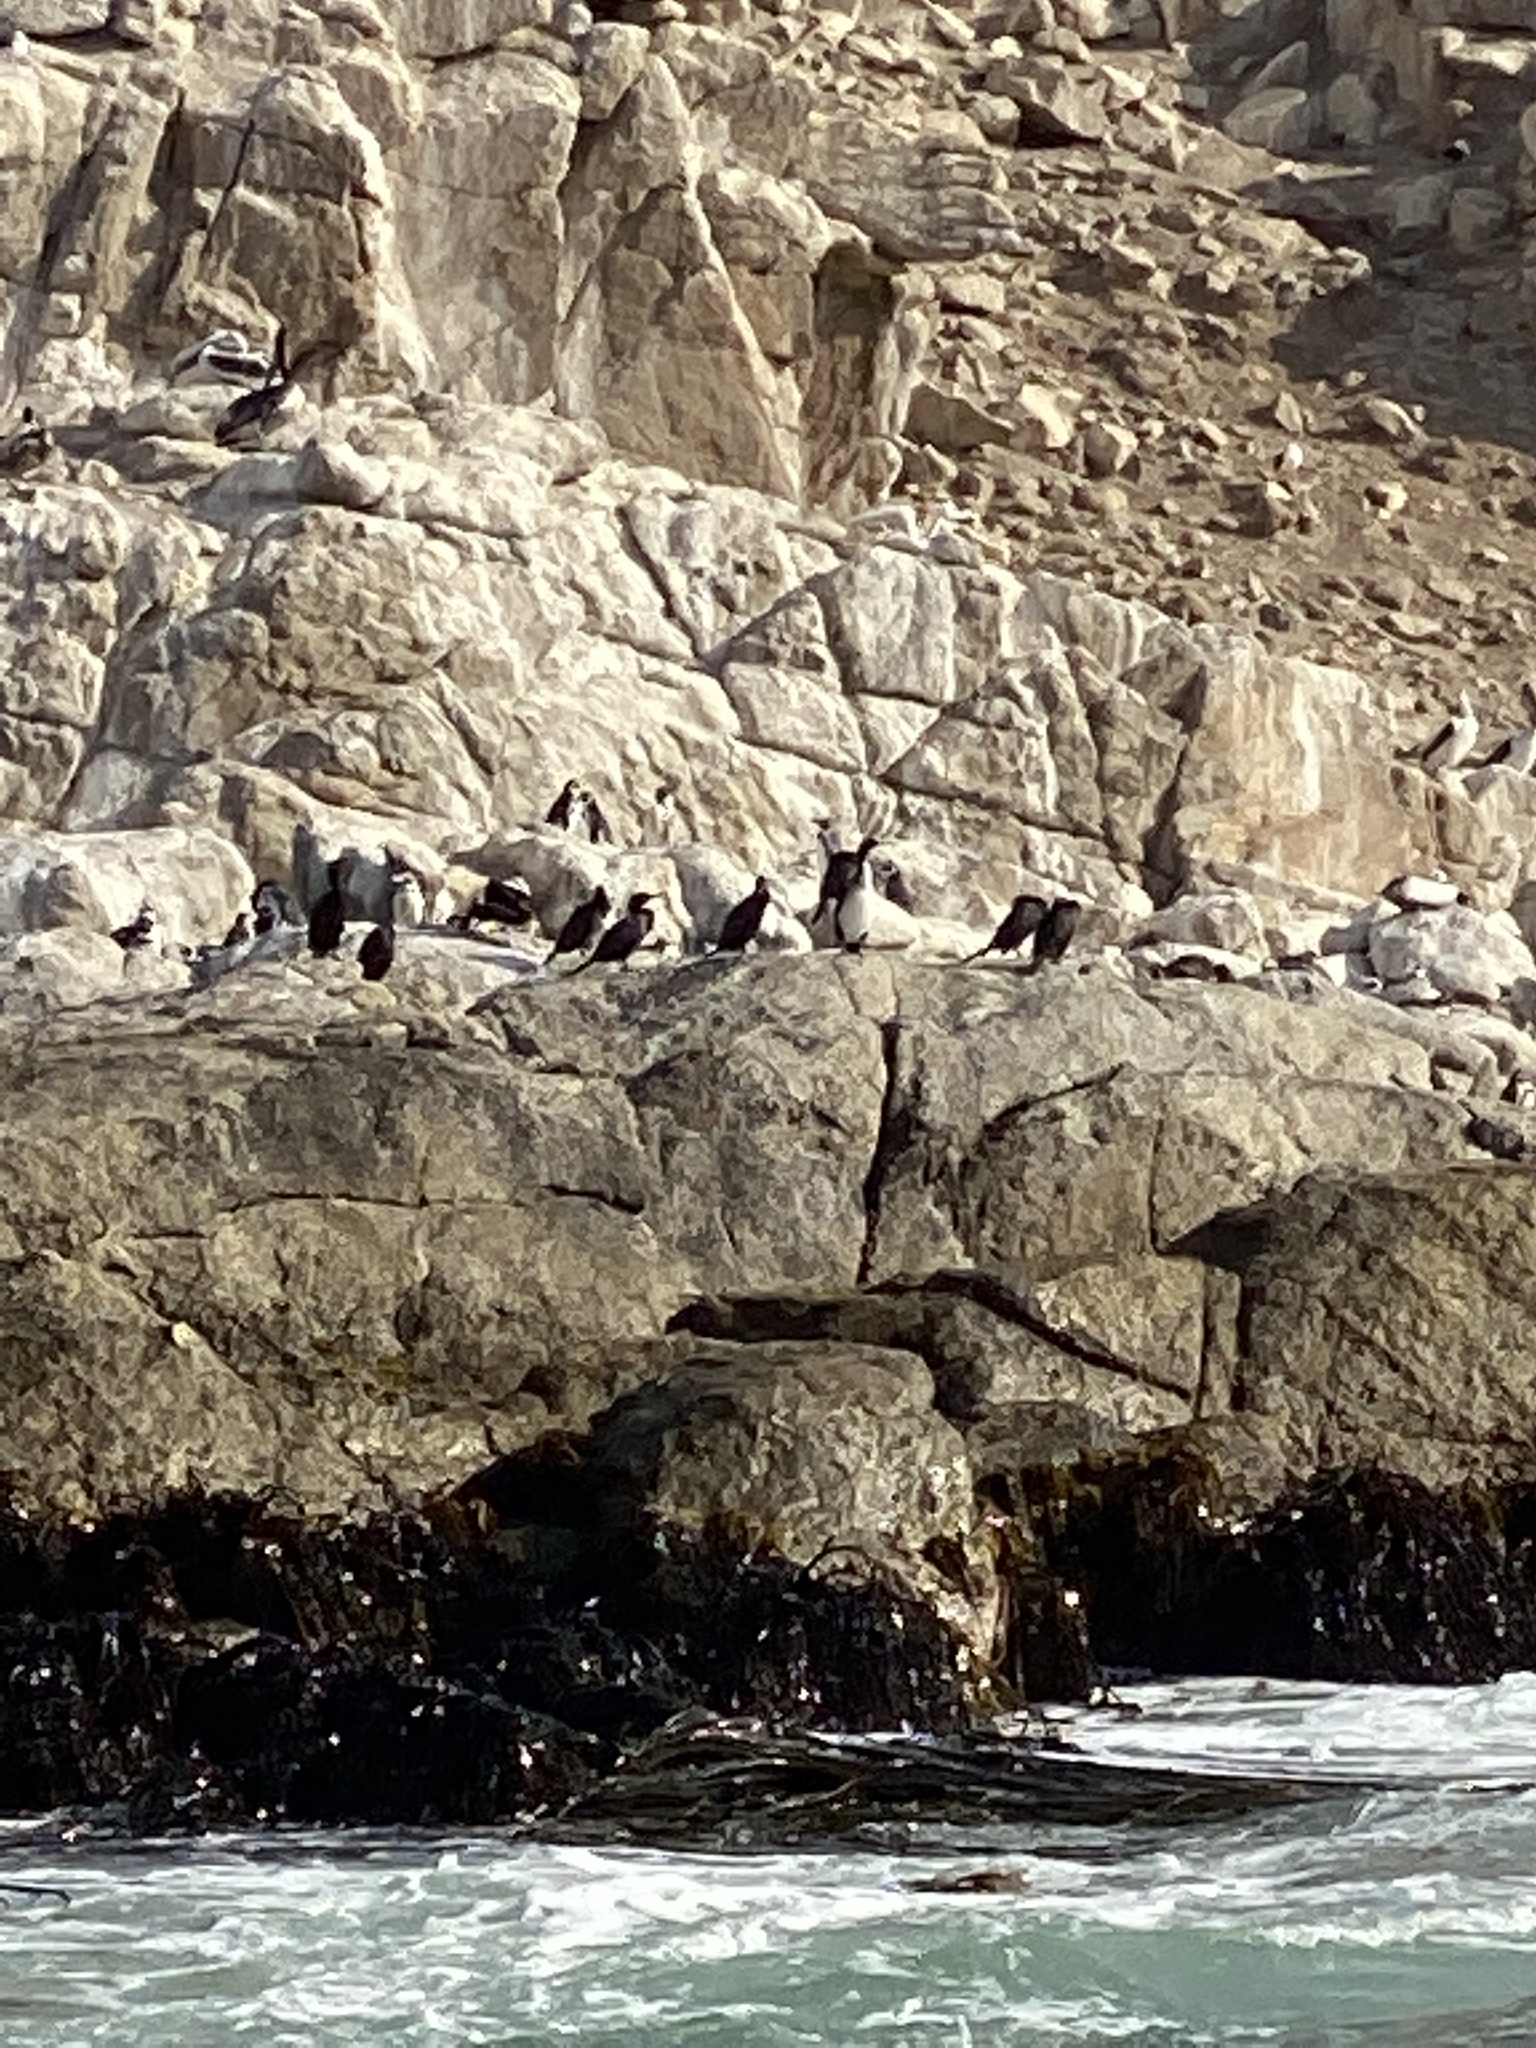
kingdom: Animalia
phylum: Chordata
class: Aves
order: Suliformes
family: Phalacrocoracidae
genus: Leucocarbo
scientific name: Leucocarbo bougainvillii
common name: Guanay cormorant
